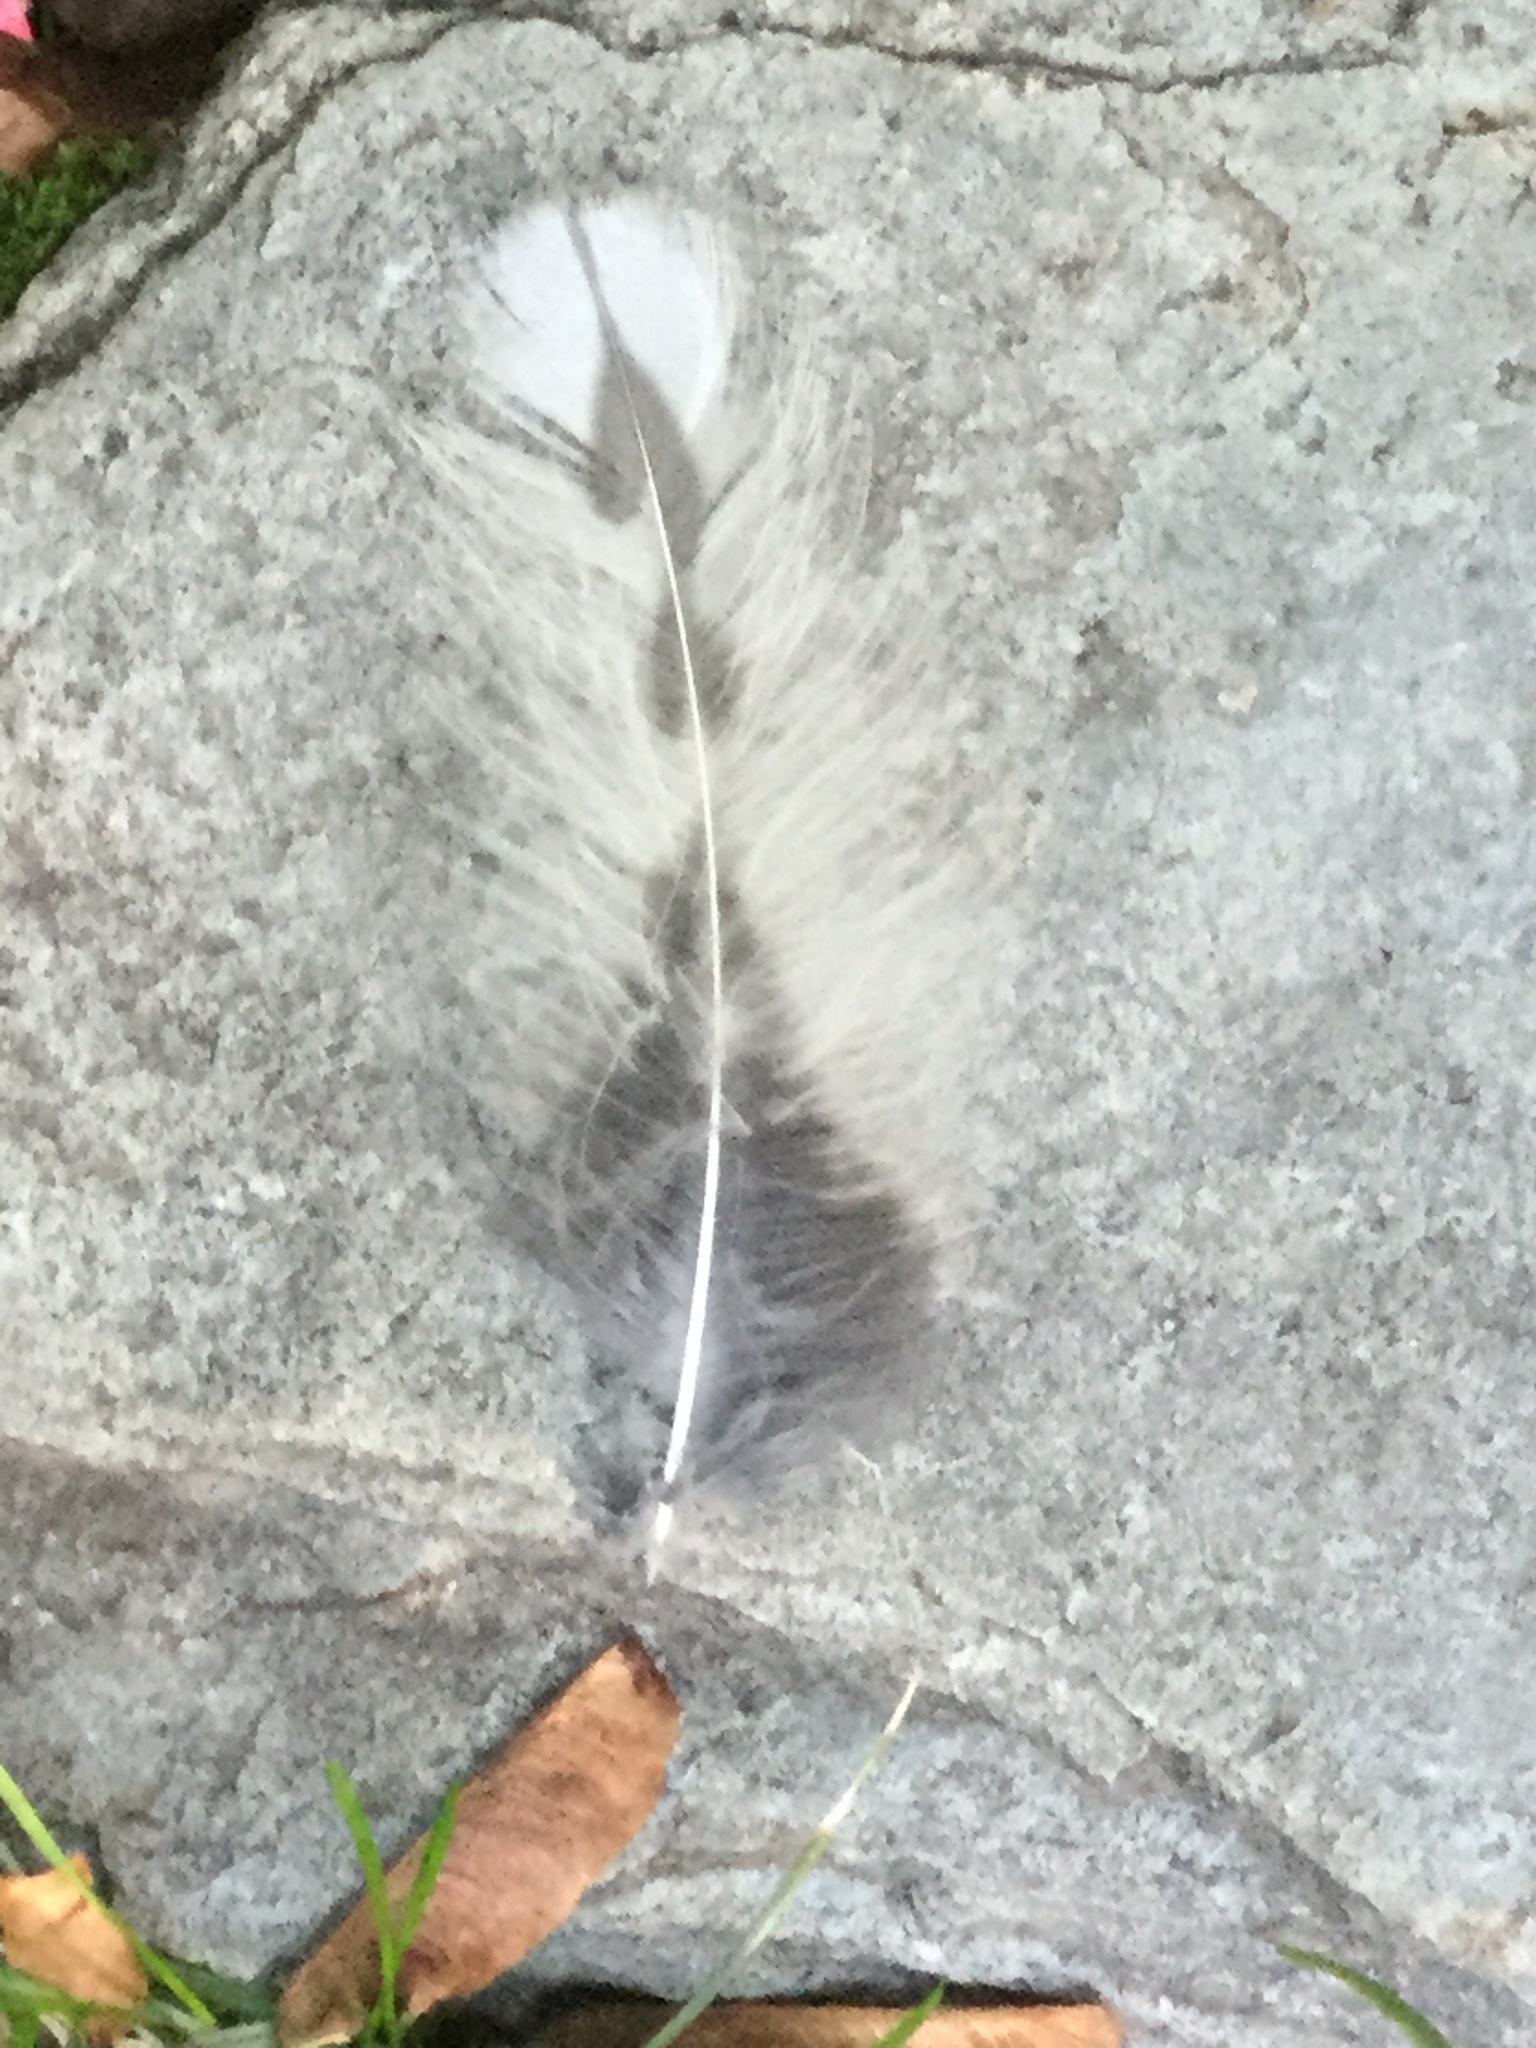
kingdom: Animalia
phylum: Chordata
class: Aves
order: Strigiformes
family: Strigidae
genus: Strix
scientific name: Strix varia
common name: Barred owl
